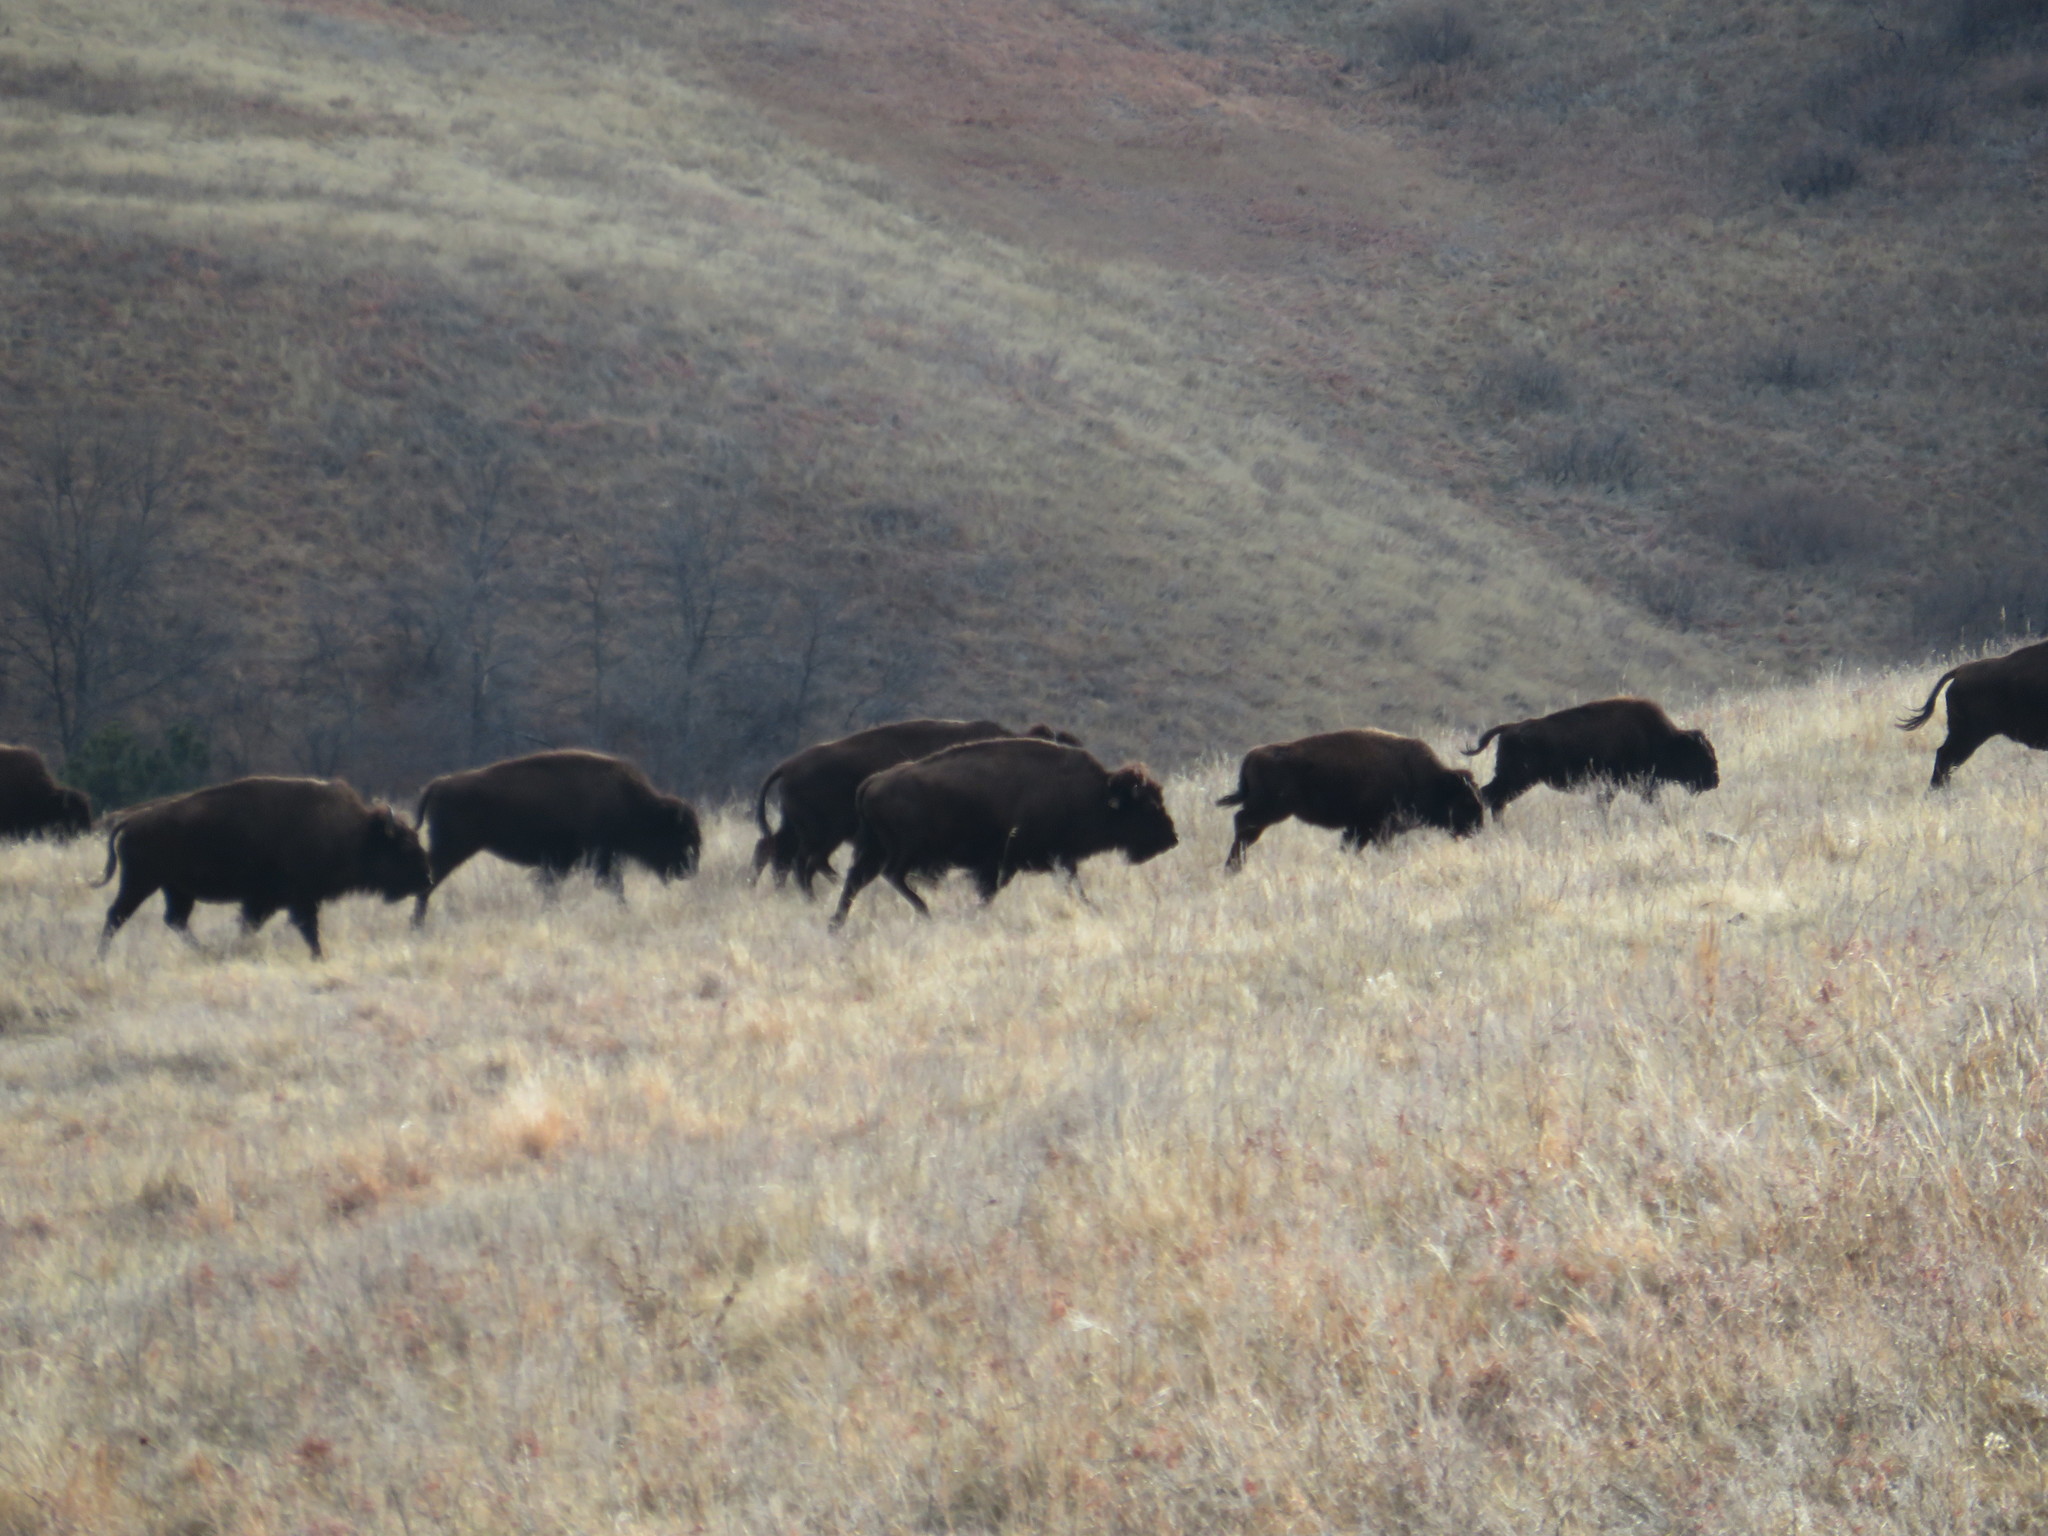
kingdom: Animalia
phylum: Chordata
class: Mammalia
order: Artiodactyla
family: Bovidae
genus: Bison
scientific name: Bison bison
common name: American bison
